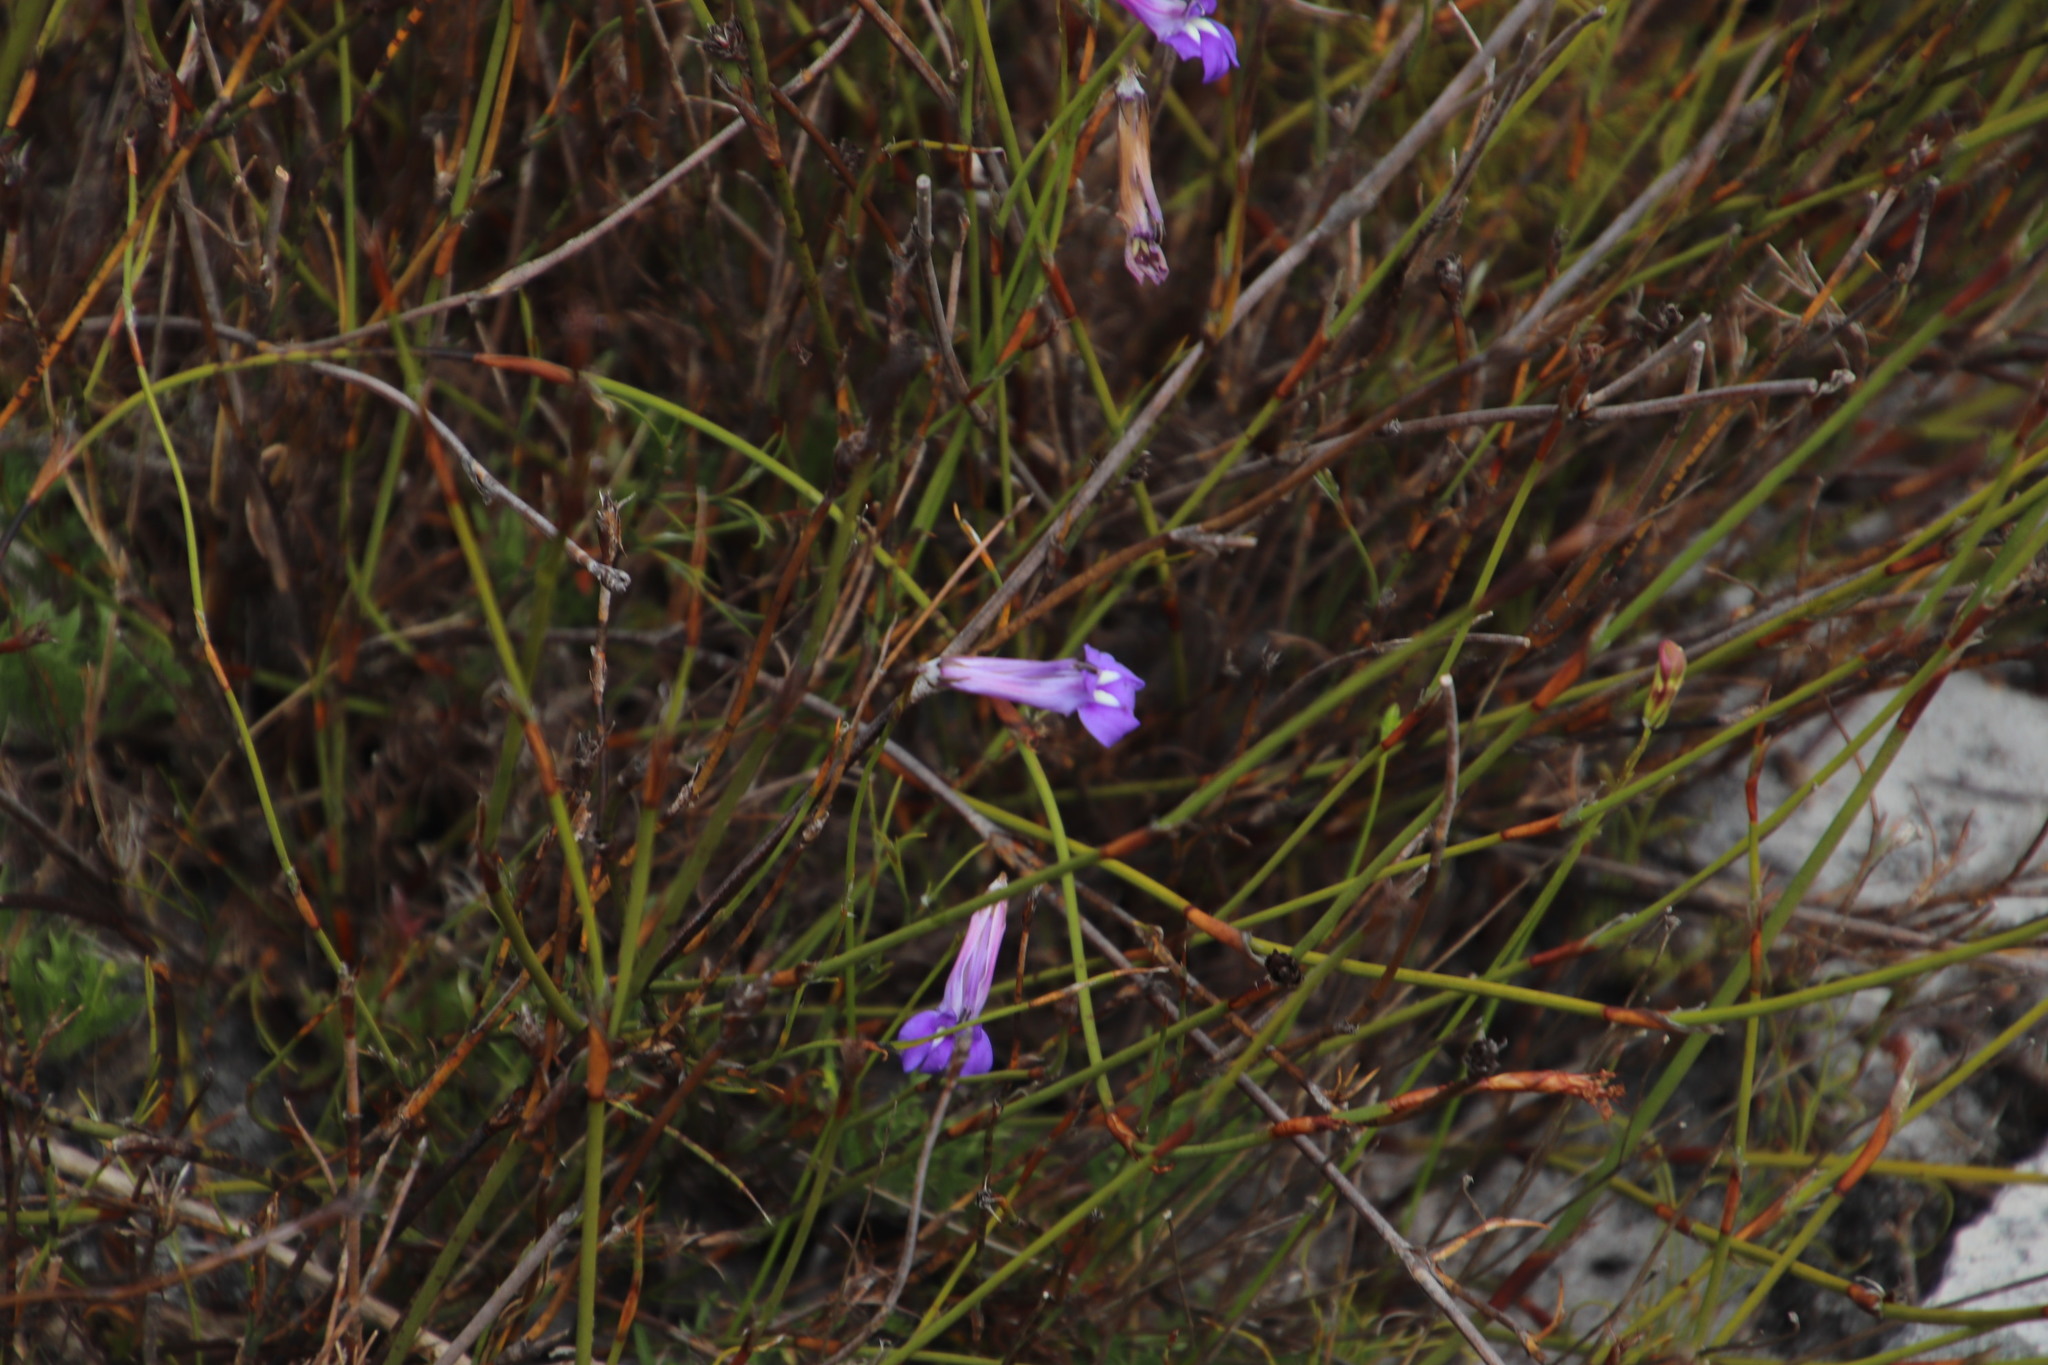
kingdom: Plantae
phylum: Tracheophyta
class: Magnoliopsida
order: Asterales
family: Campanulaceae
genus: Lobelia
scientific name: Lobelia coronopifolia
